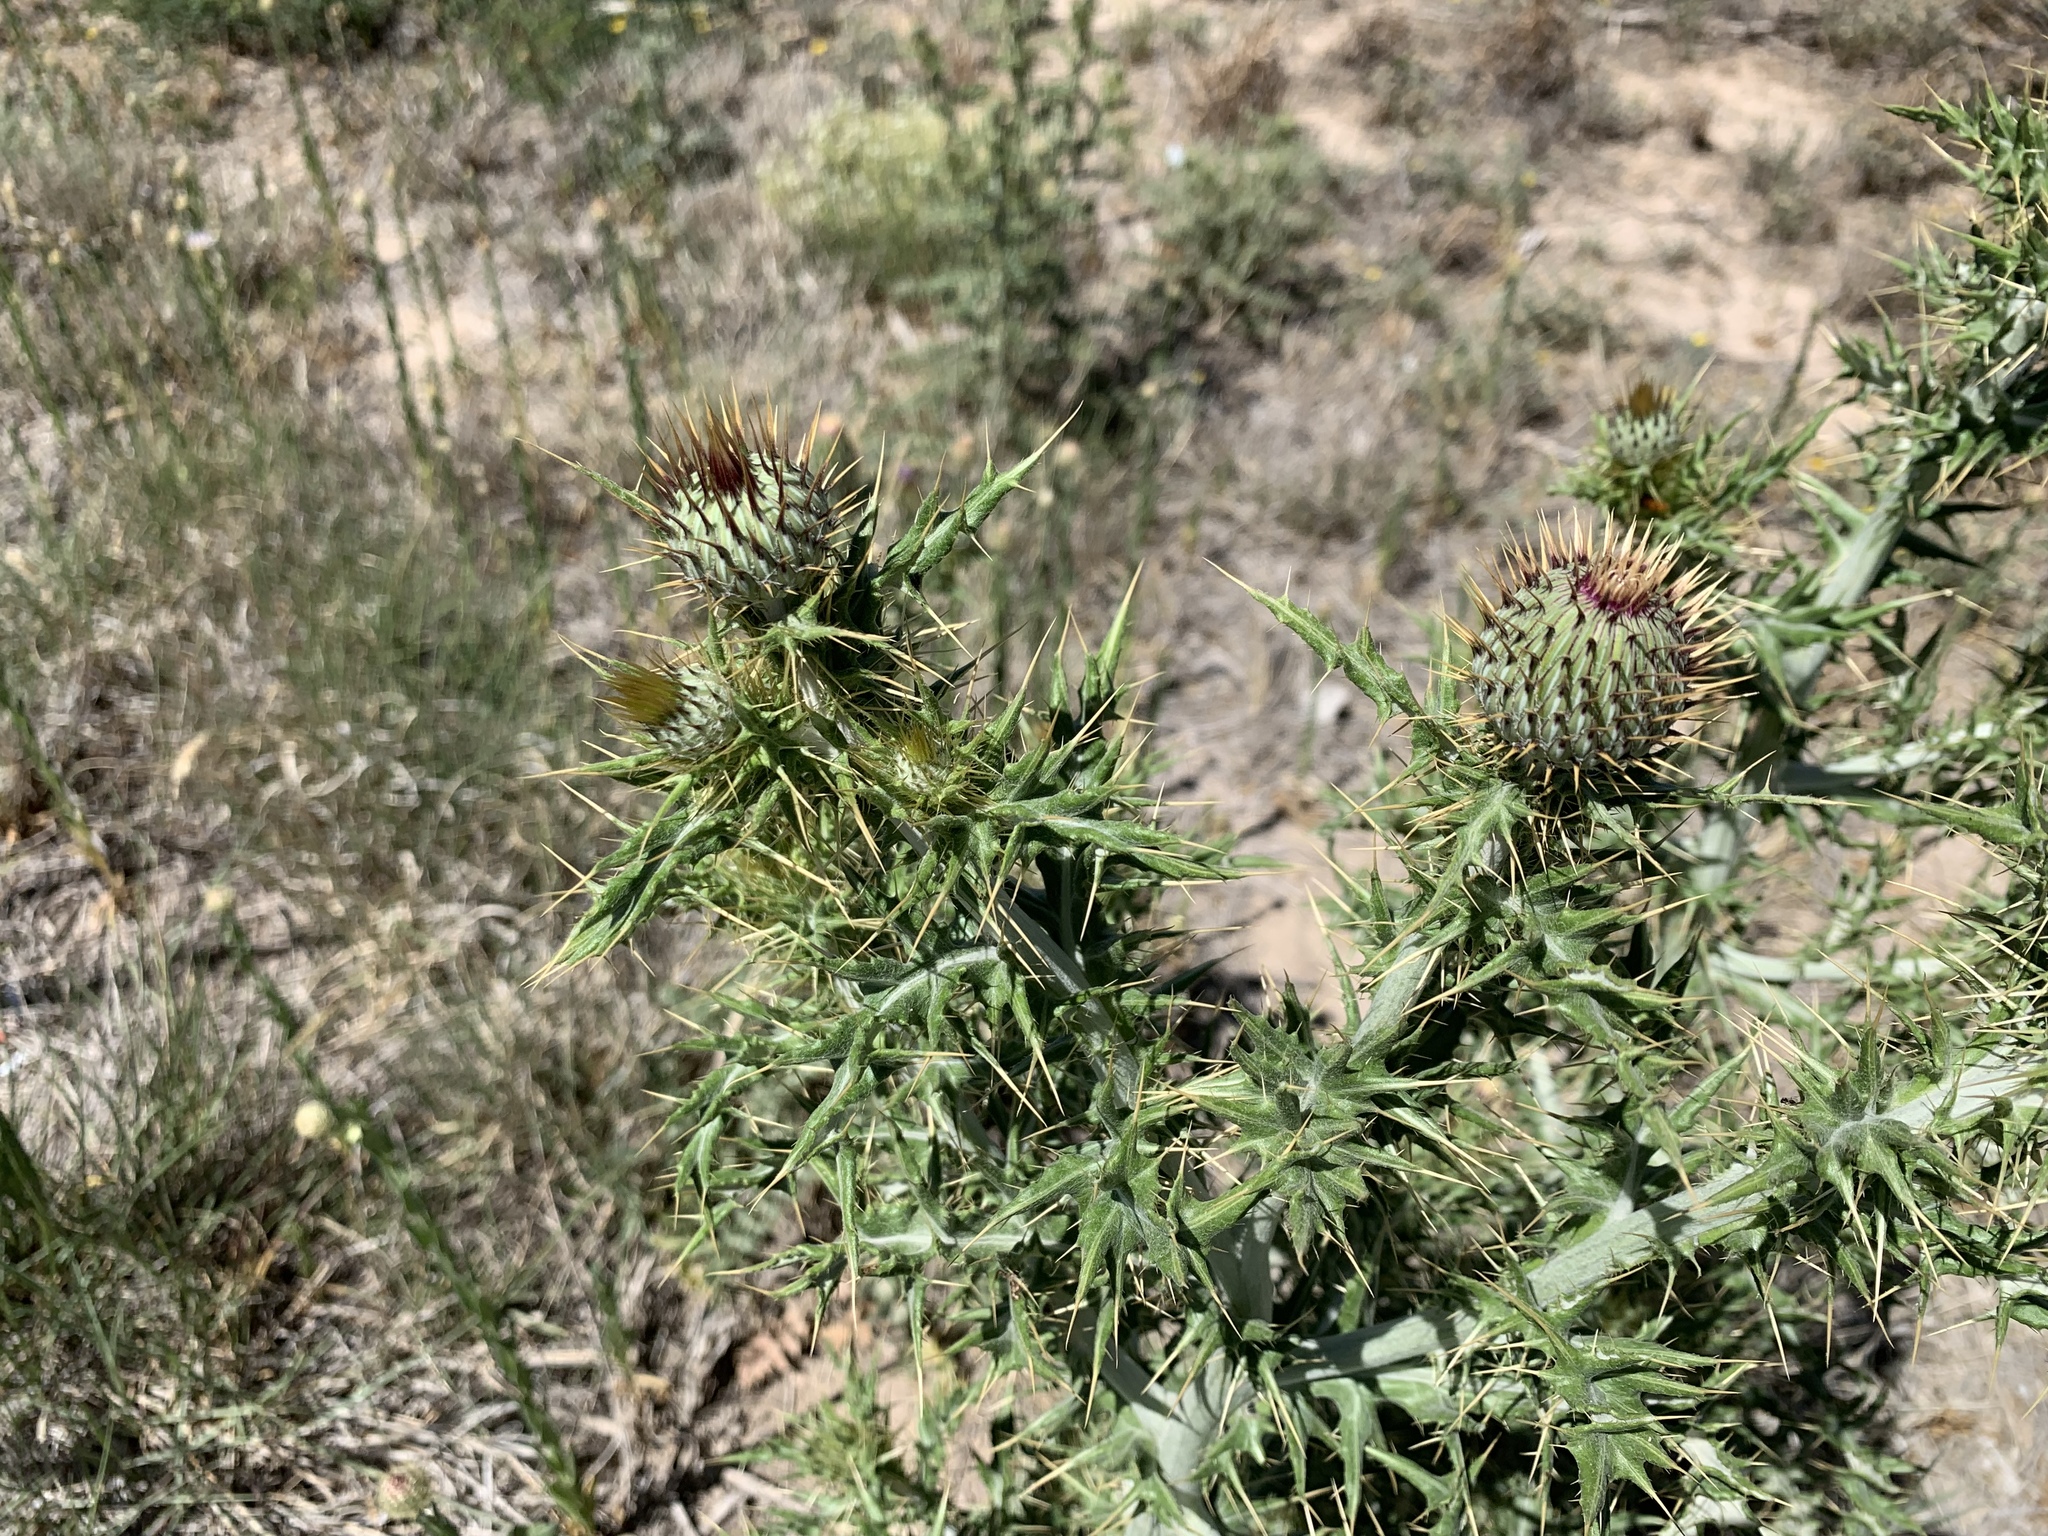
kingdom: Plantae
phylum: Tracheophyta
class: Magnoliopsida
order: Asterales
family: Asteraceae
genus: Cirsium
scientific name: Cirsium ochrocentrum
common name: Yellow-spine thistle
